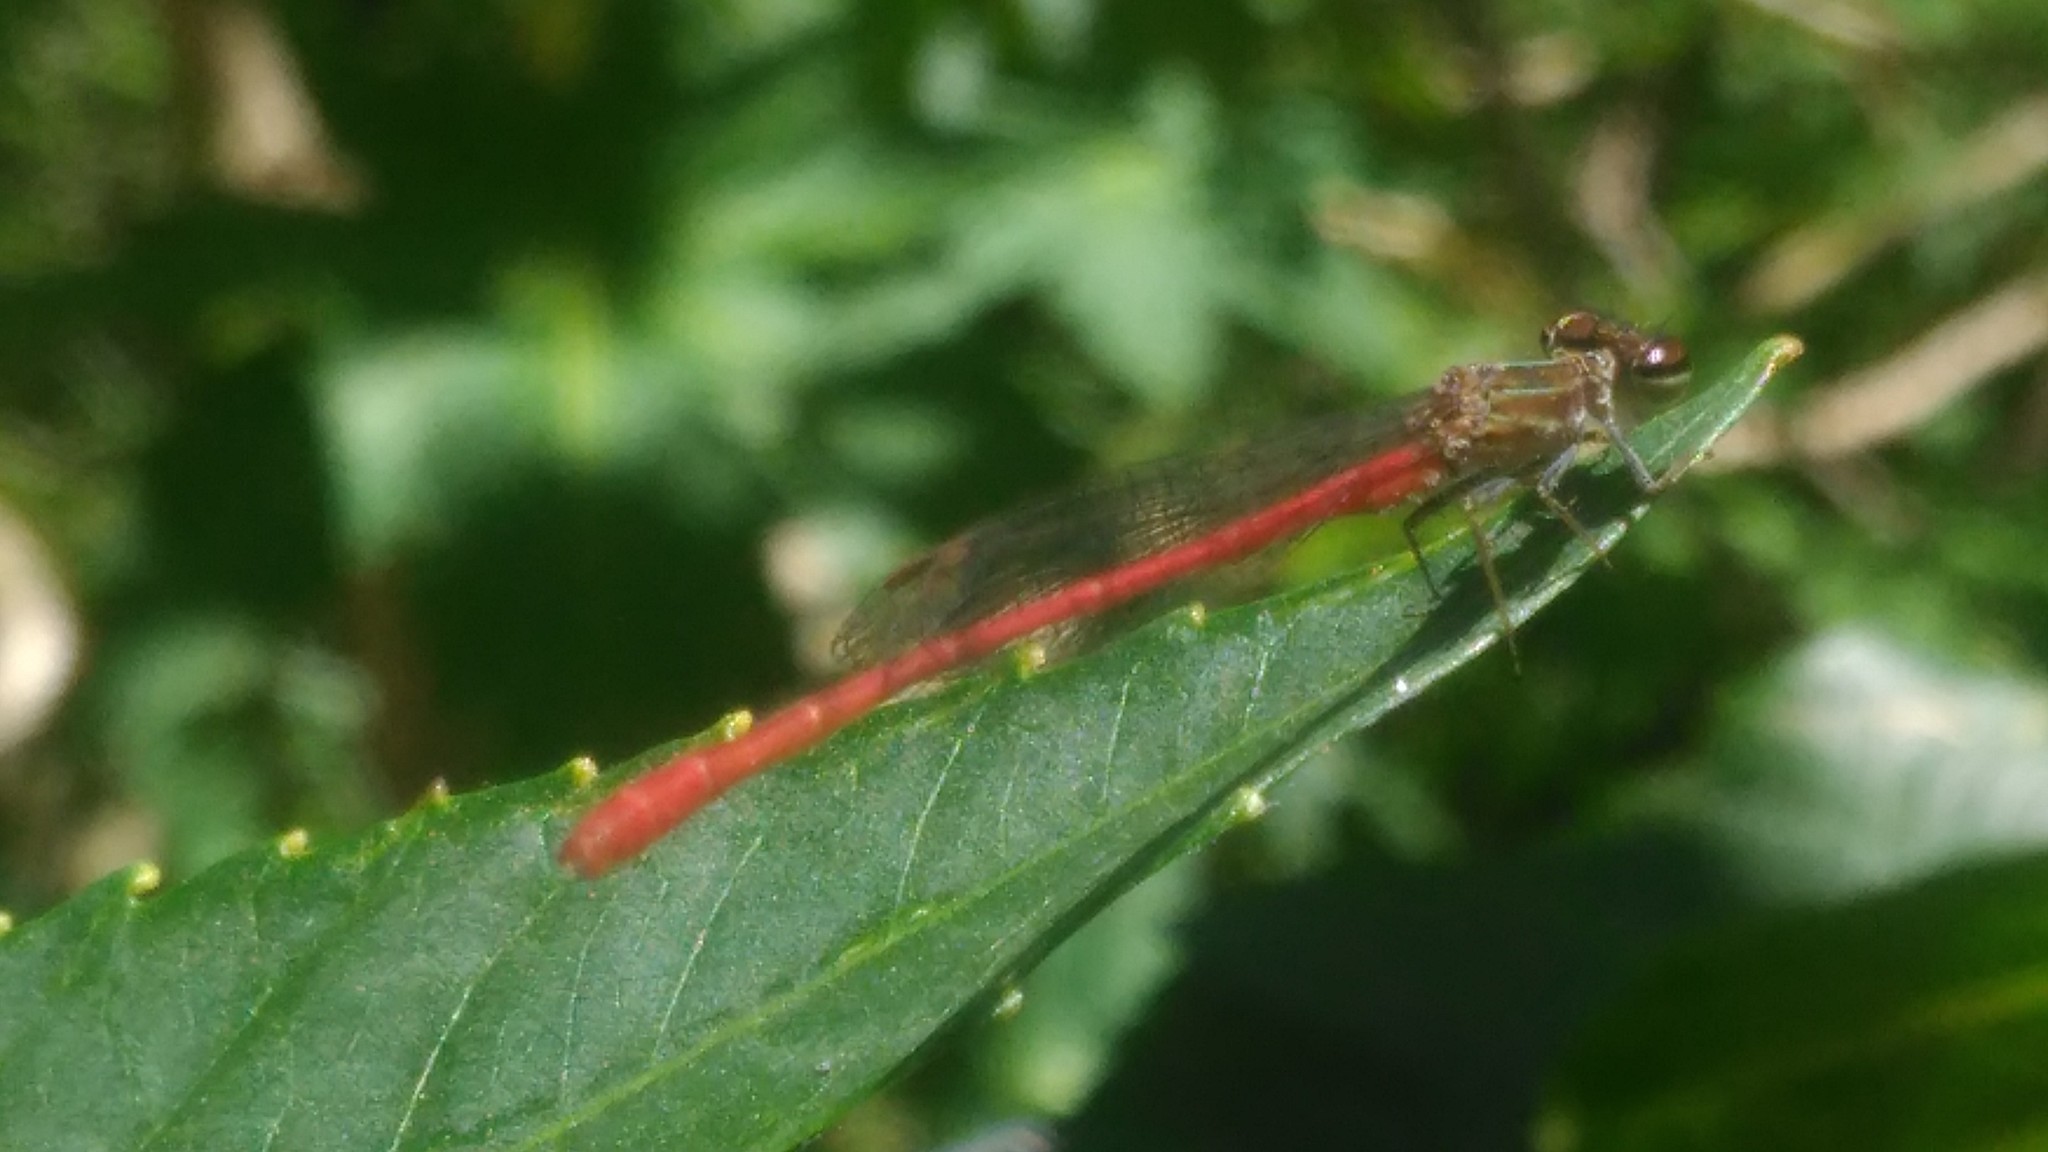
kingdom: Animalia
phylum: Arthropoda
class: Insecta
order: Odonata
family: Coenagrionidae
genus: Telebasis
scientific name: Telebasis willinki
